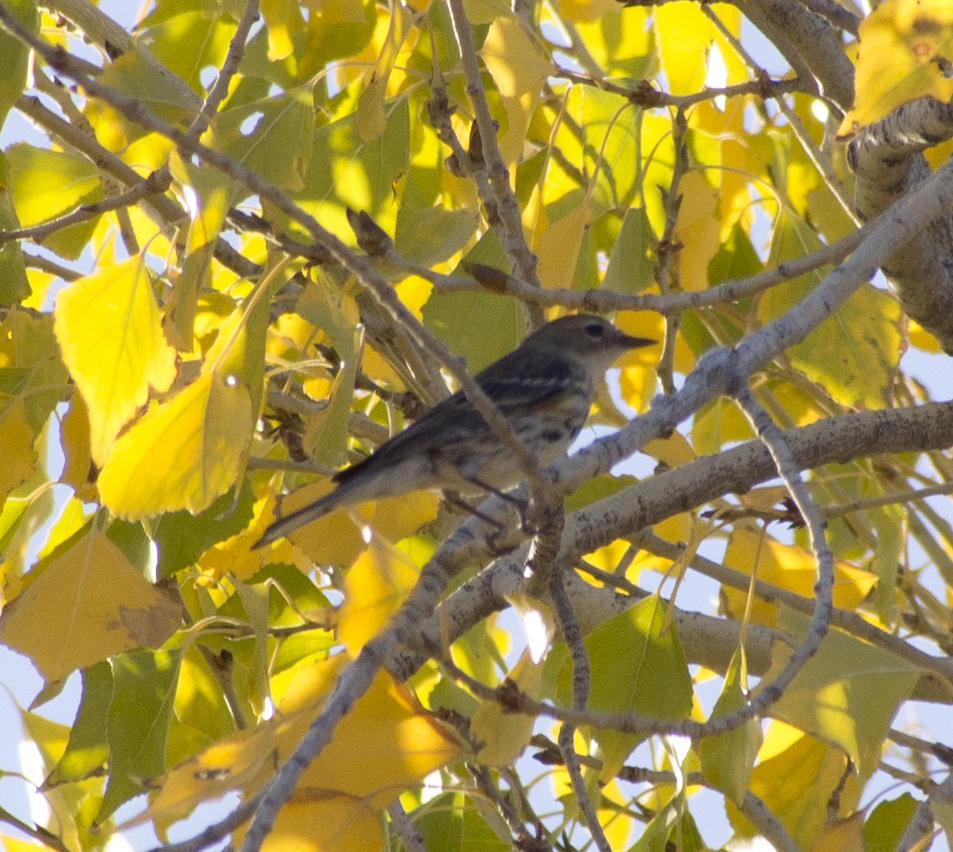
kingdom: Animalia
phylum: Chordata
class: Aves
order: Passeriformes
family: Parulidae
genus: Setophaga
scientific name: Setophaga coronata
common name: Myrtle warbler
